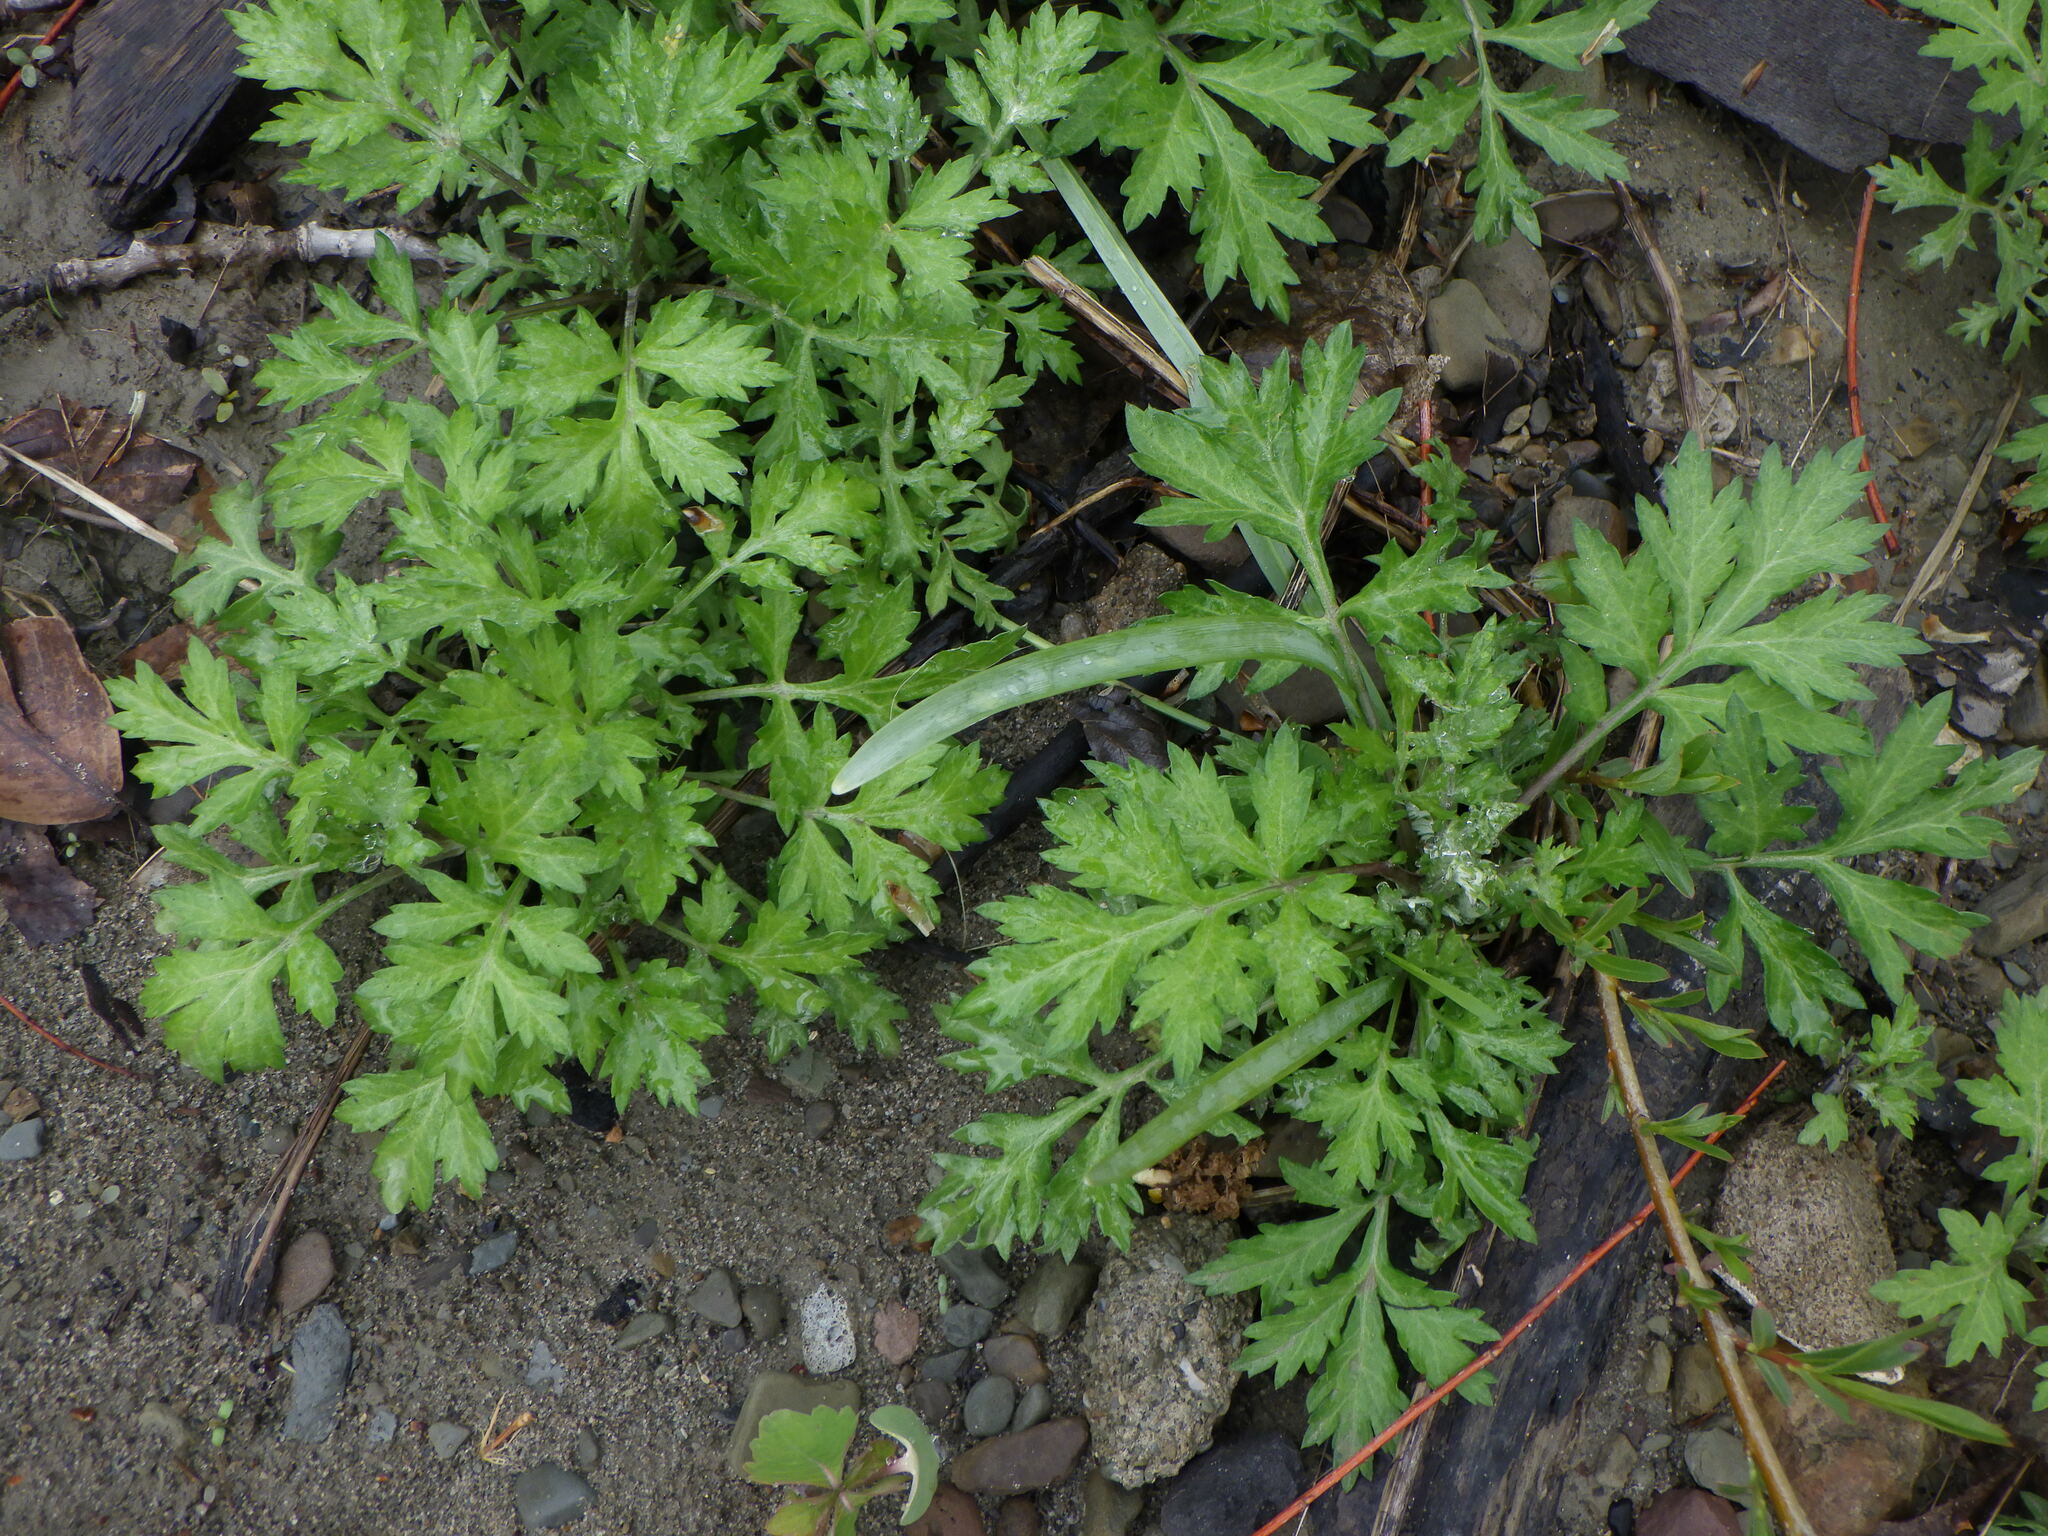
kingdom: Plantae
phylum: Tracheophyta
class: Magnoliopsida
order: Asterales
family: Asteraceae
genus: Artemisia
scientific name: Artemisia vulgaris
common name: Mugwort
